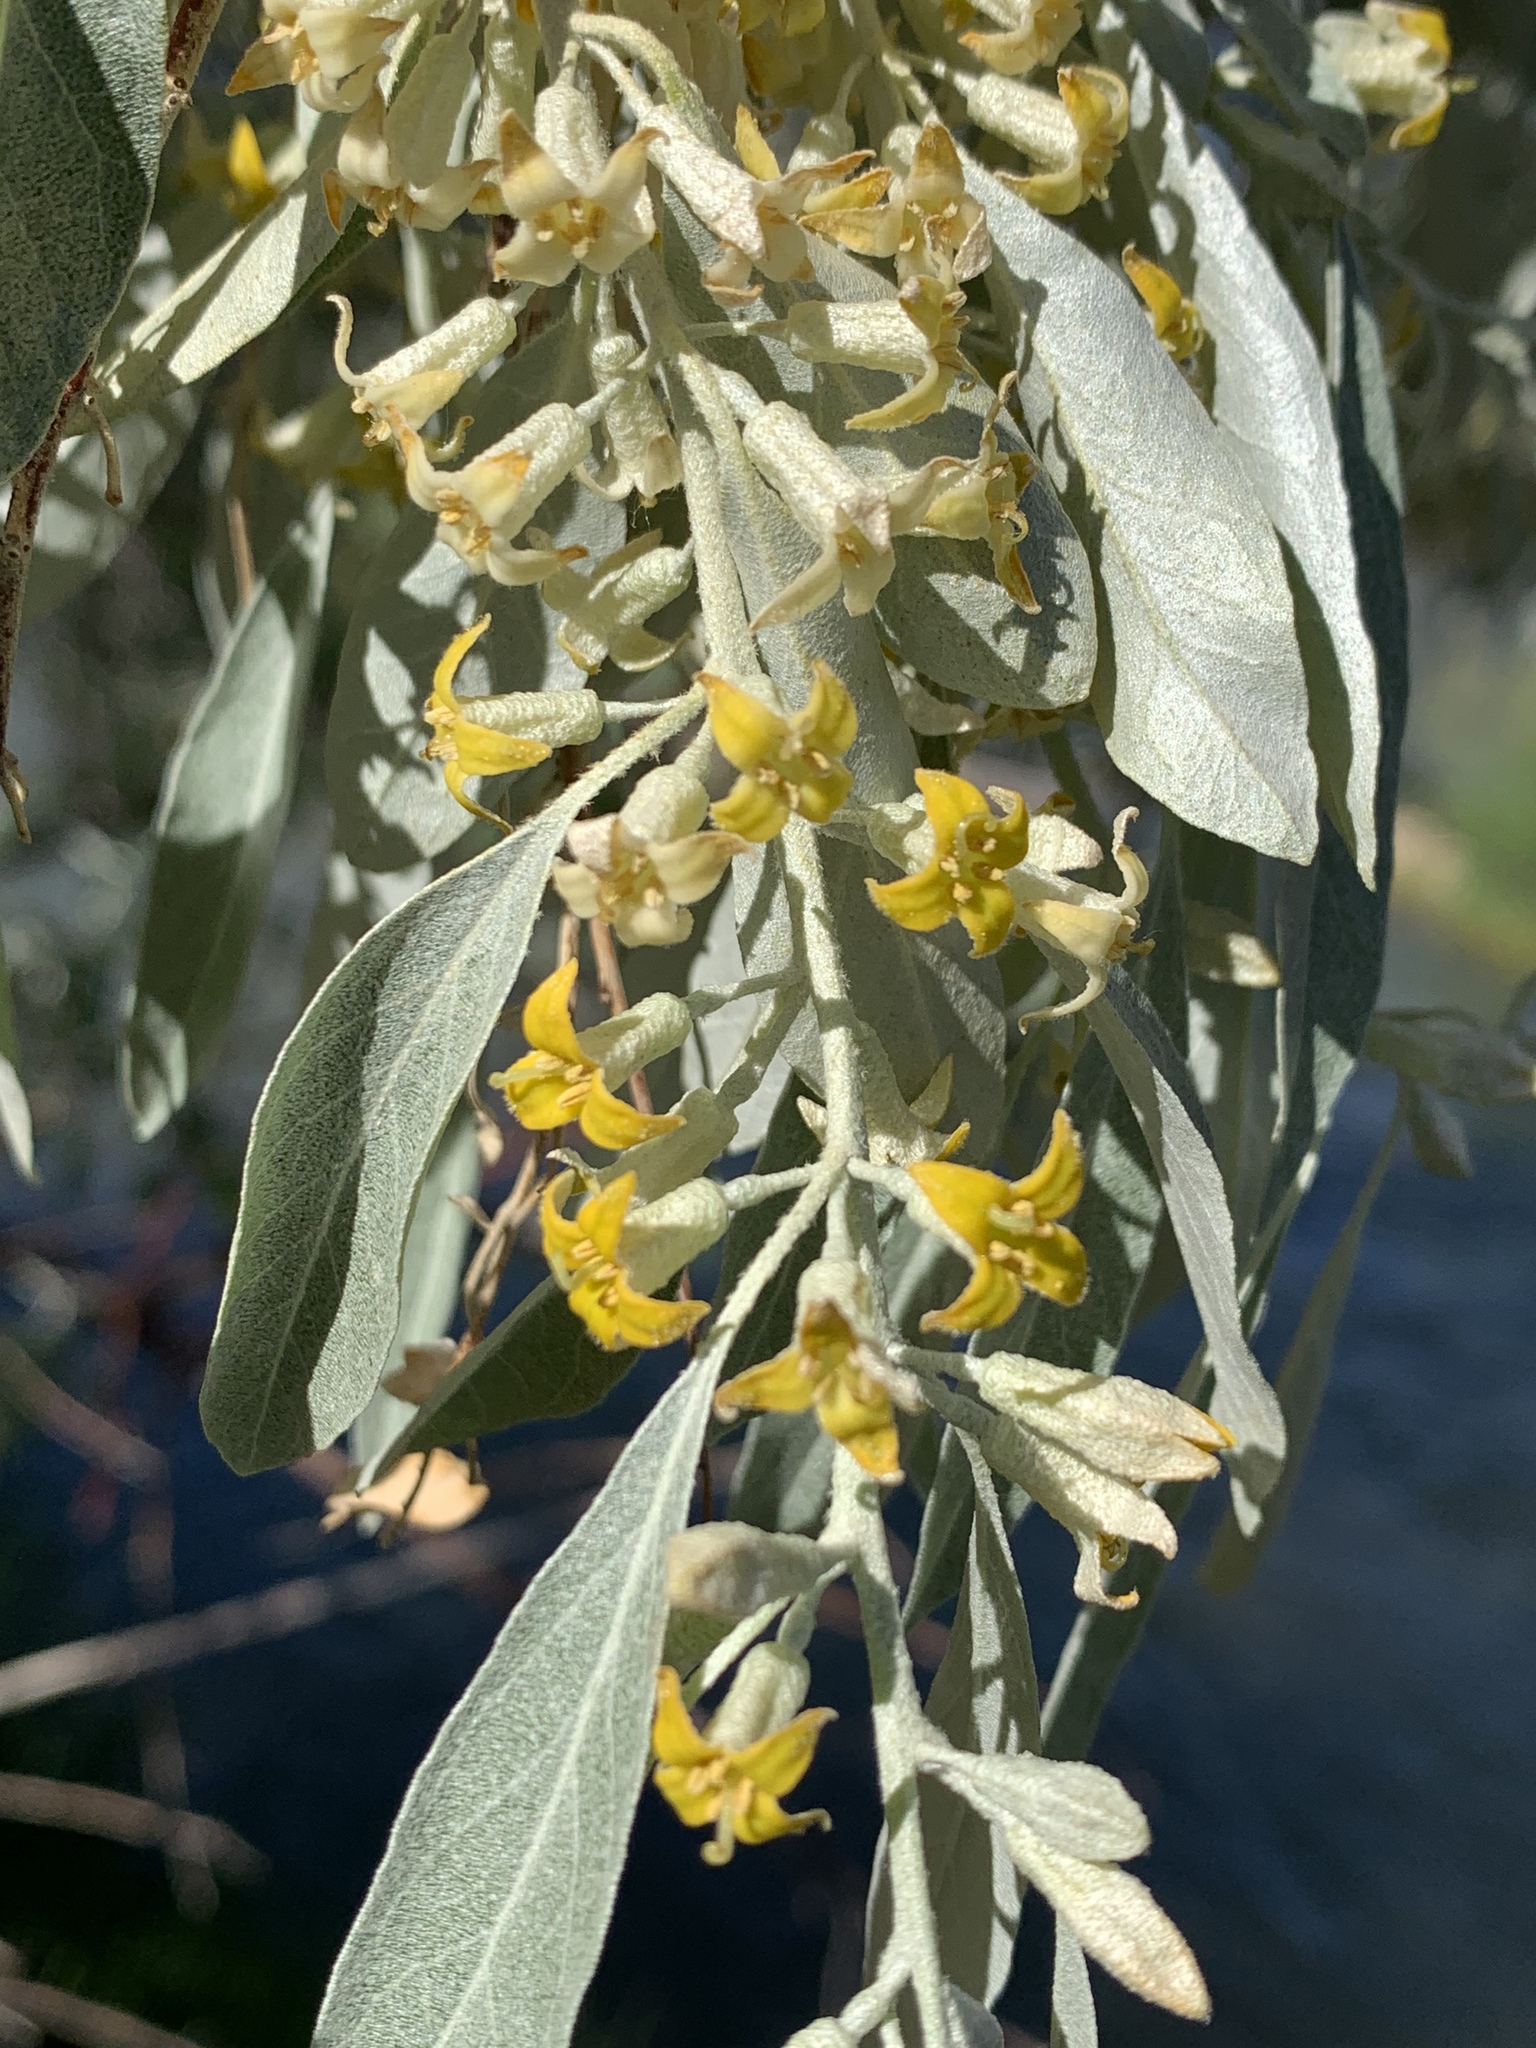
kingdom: Plantae
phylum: Tracheophyta
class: Magnoliopsida
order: Rosales
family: Elaeagnaceae
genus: Elaeagnus
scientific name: Elaeagnus angustifolia
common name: Russian olive
